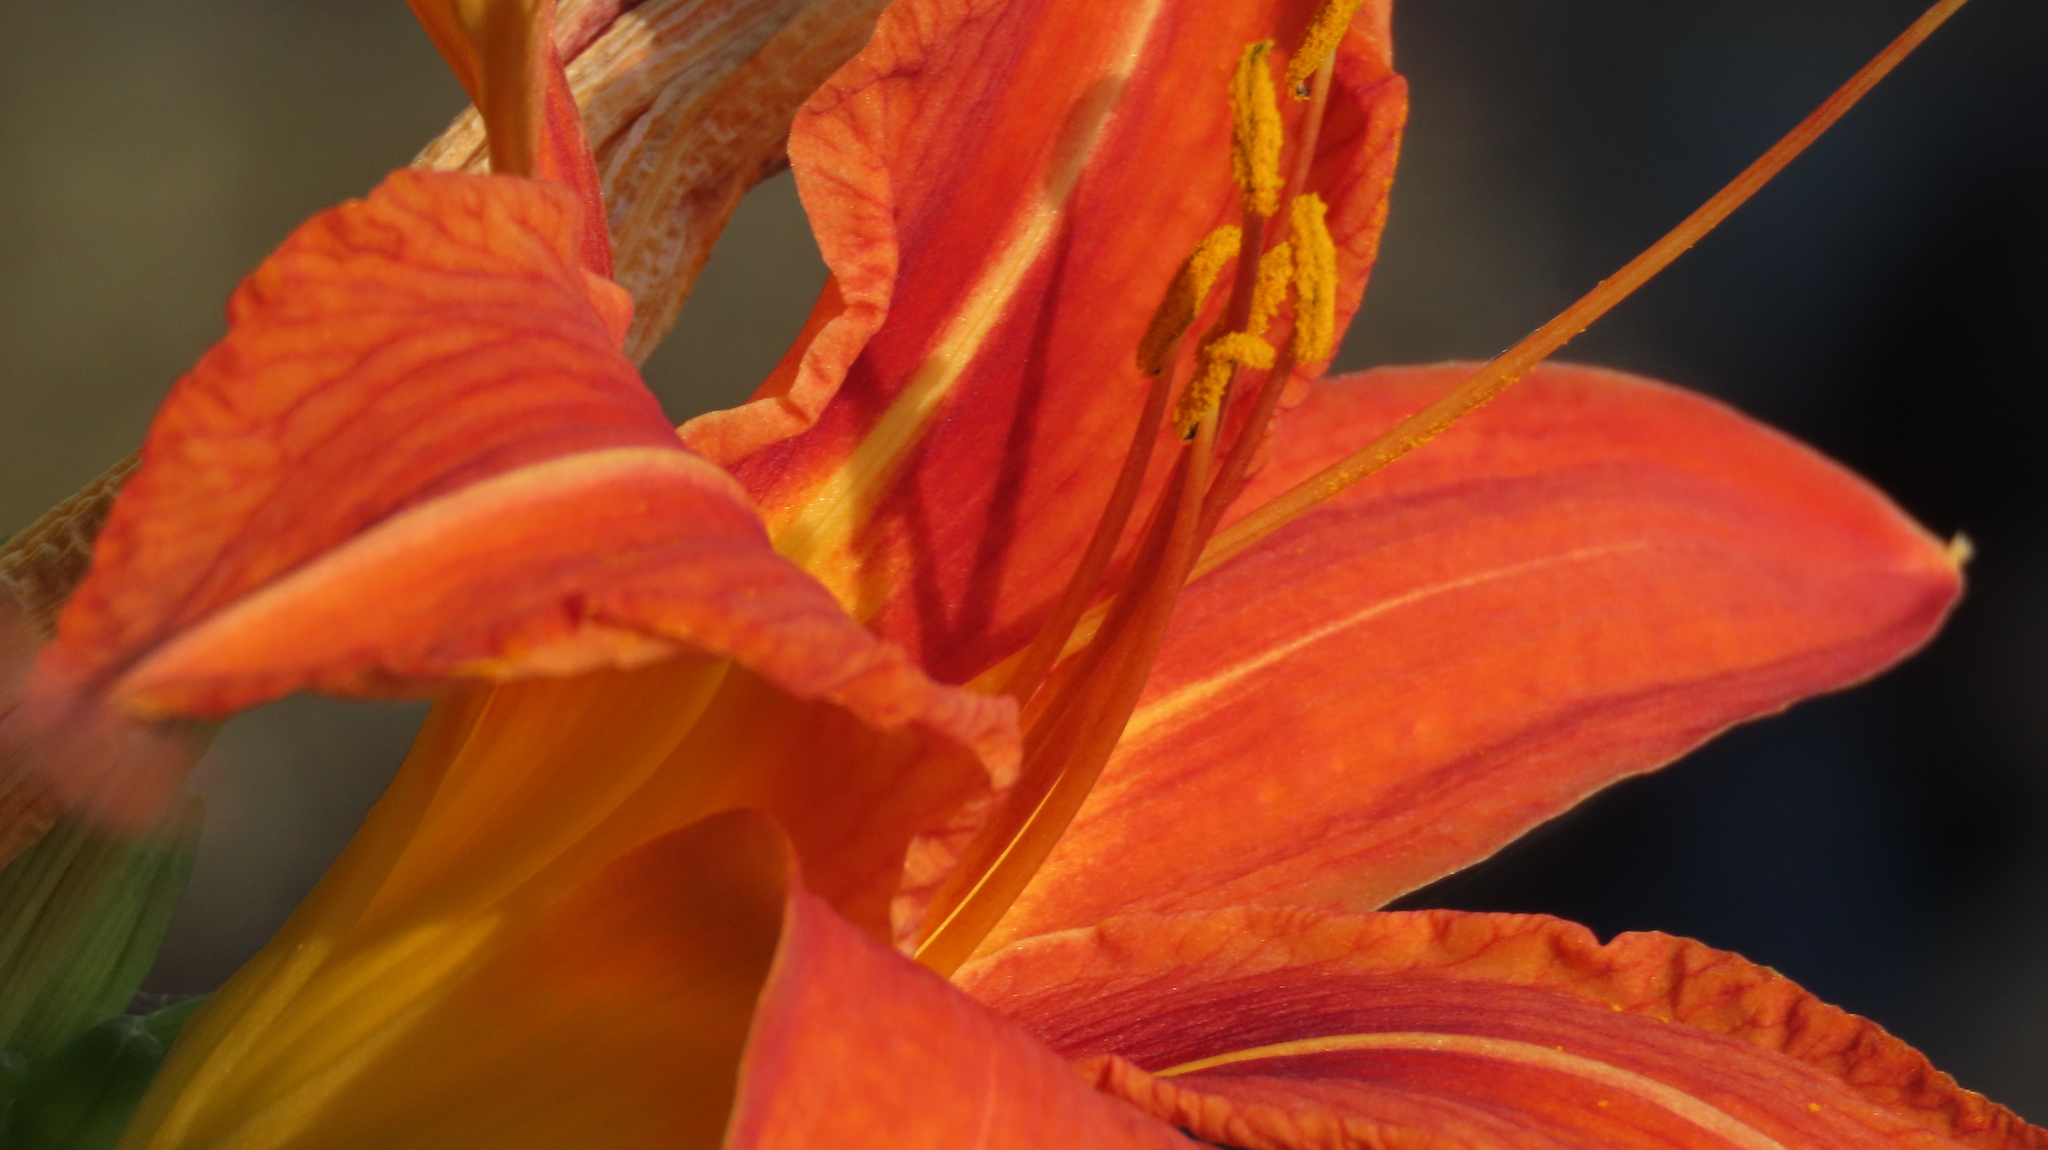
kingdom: Plantae
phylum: Tracheophyta
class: Liliopsida
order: Asparagales
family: Asphodelaceae
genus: Hemerocallis
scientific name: Hemerocallis fulva
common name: Orange day-lily
